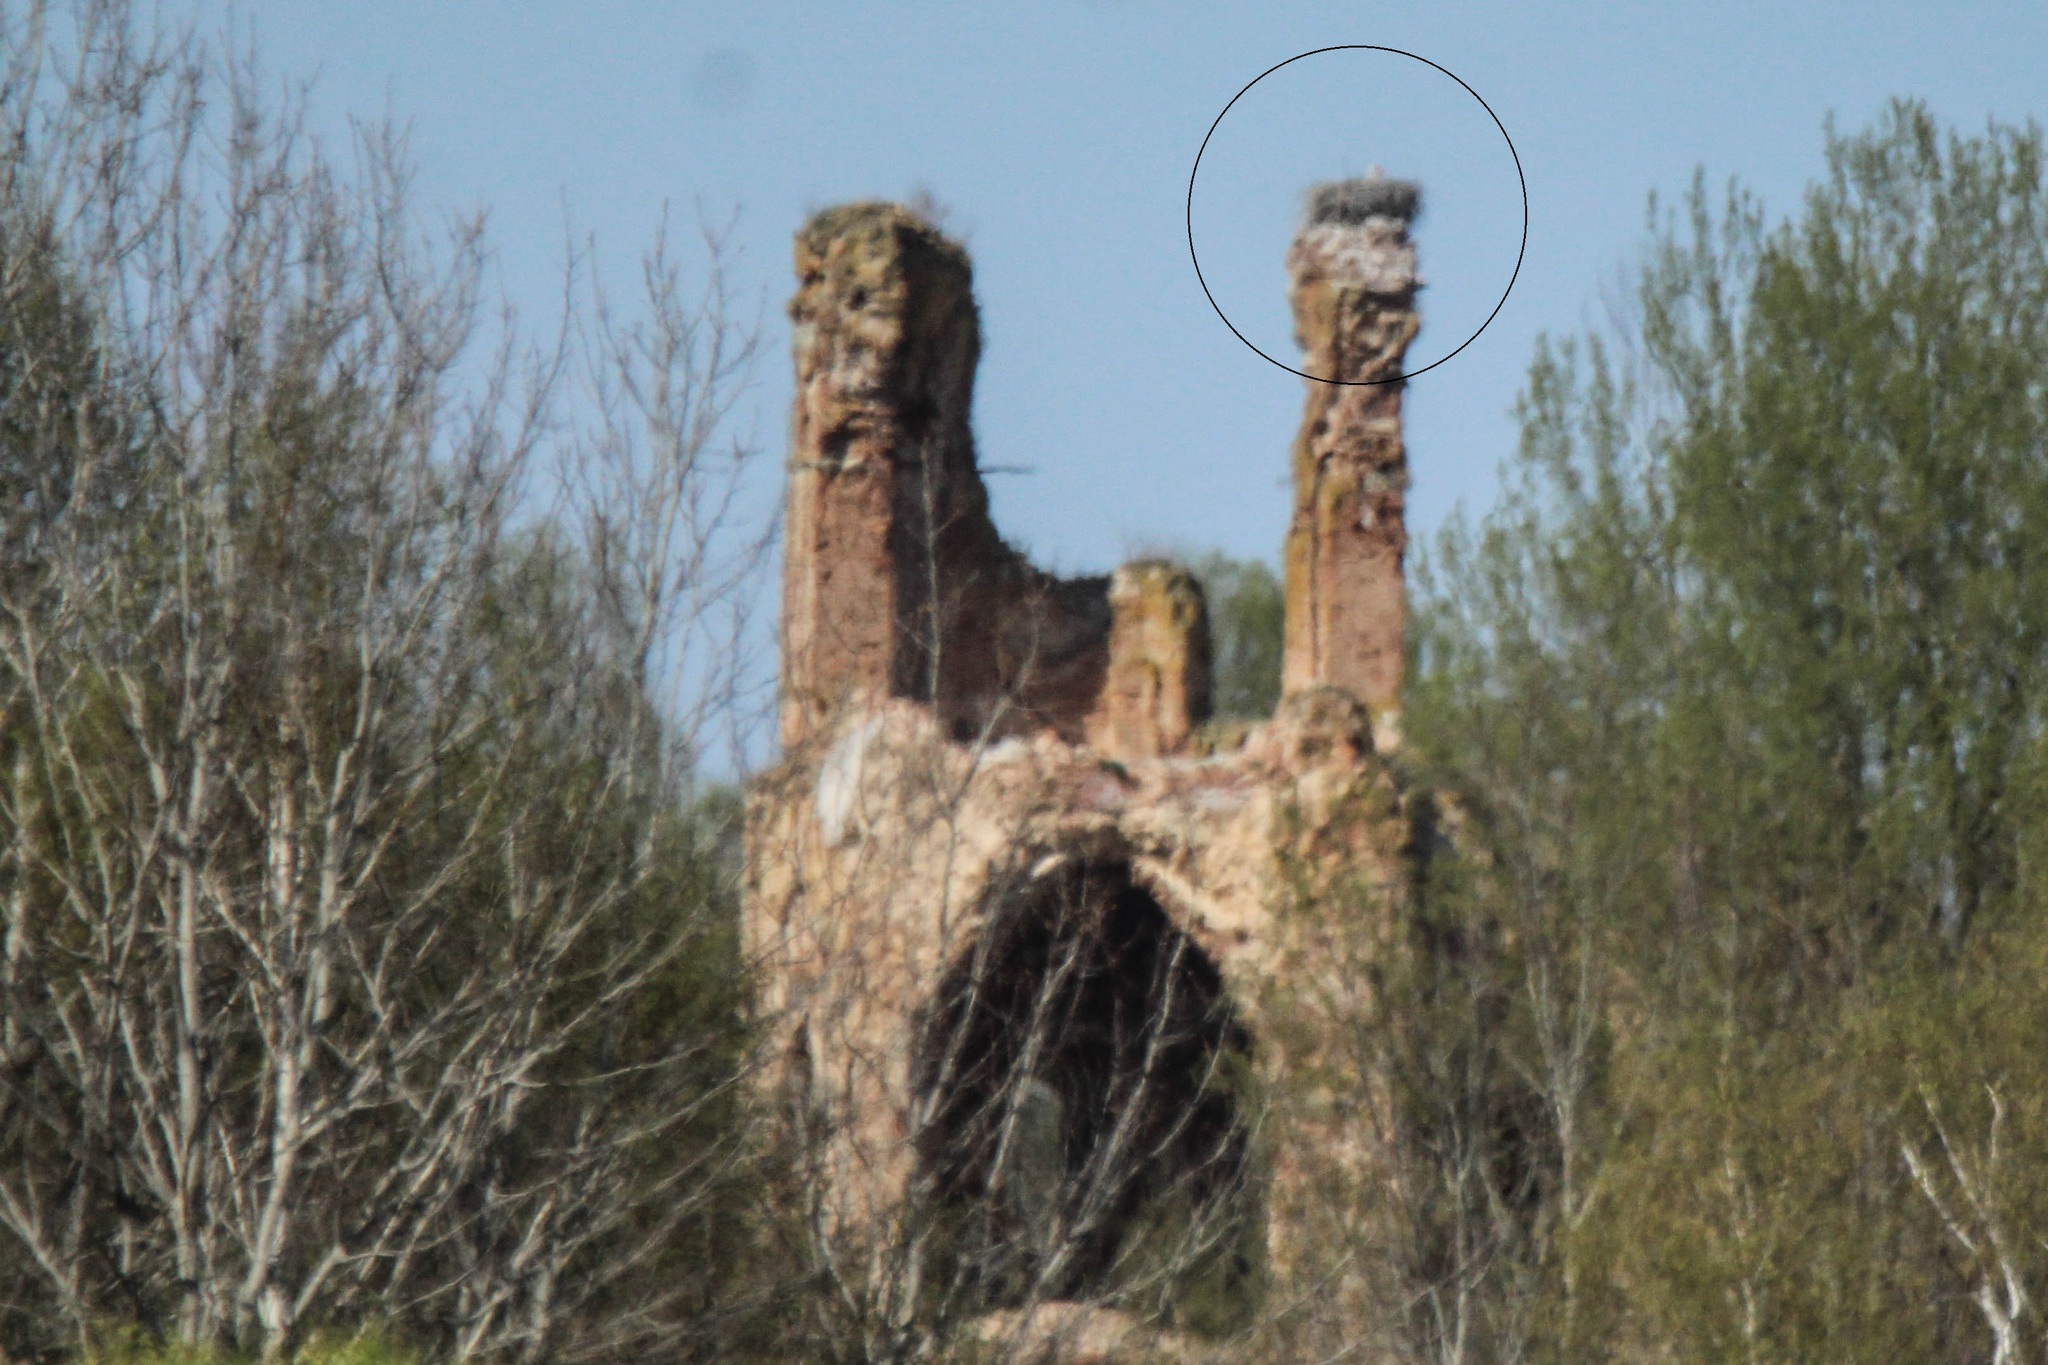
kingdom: Animalia
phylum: Chordata
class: Aves
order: Ciconiiformes
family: Ciconiidae
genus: Ciconia
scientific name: Ciconia ciconia
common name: White stork
